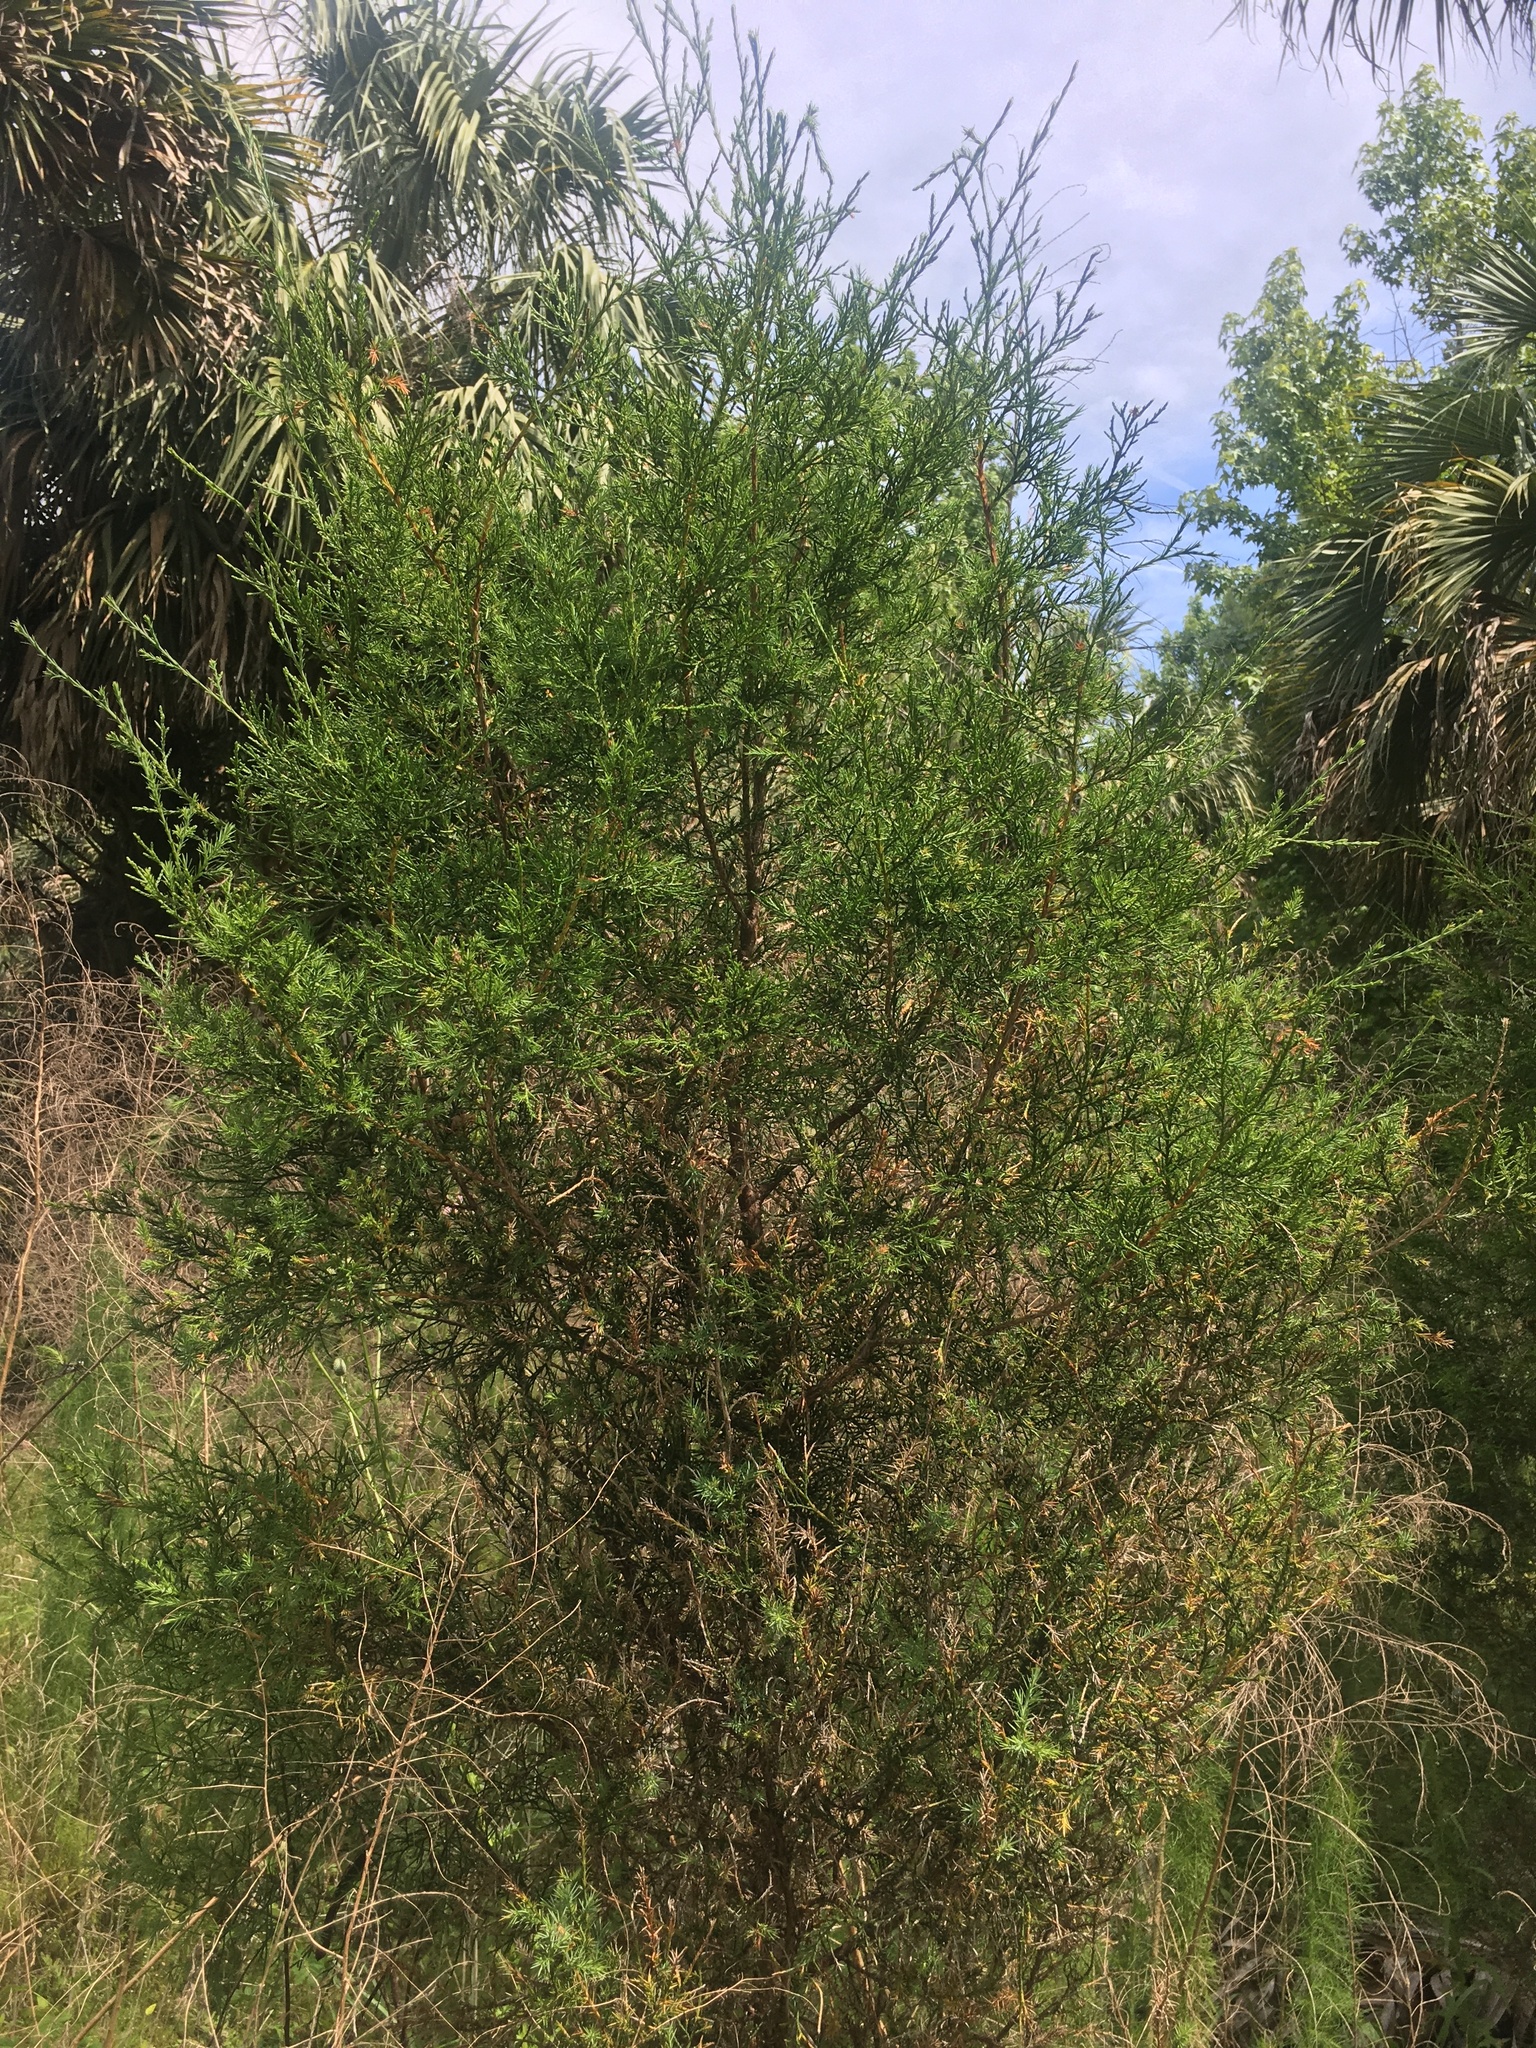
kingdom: Plantae
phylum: Tracheophyta
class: Pinopsida
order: Pinales
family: Cupressaceae
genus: Juniperus
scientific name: Juniperus virginiana
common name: Red juniper
